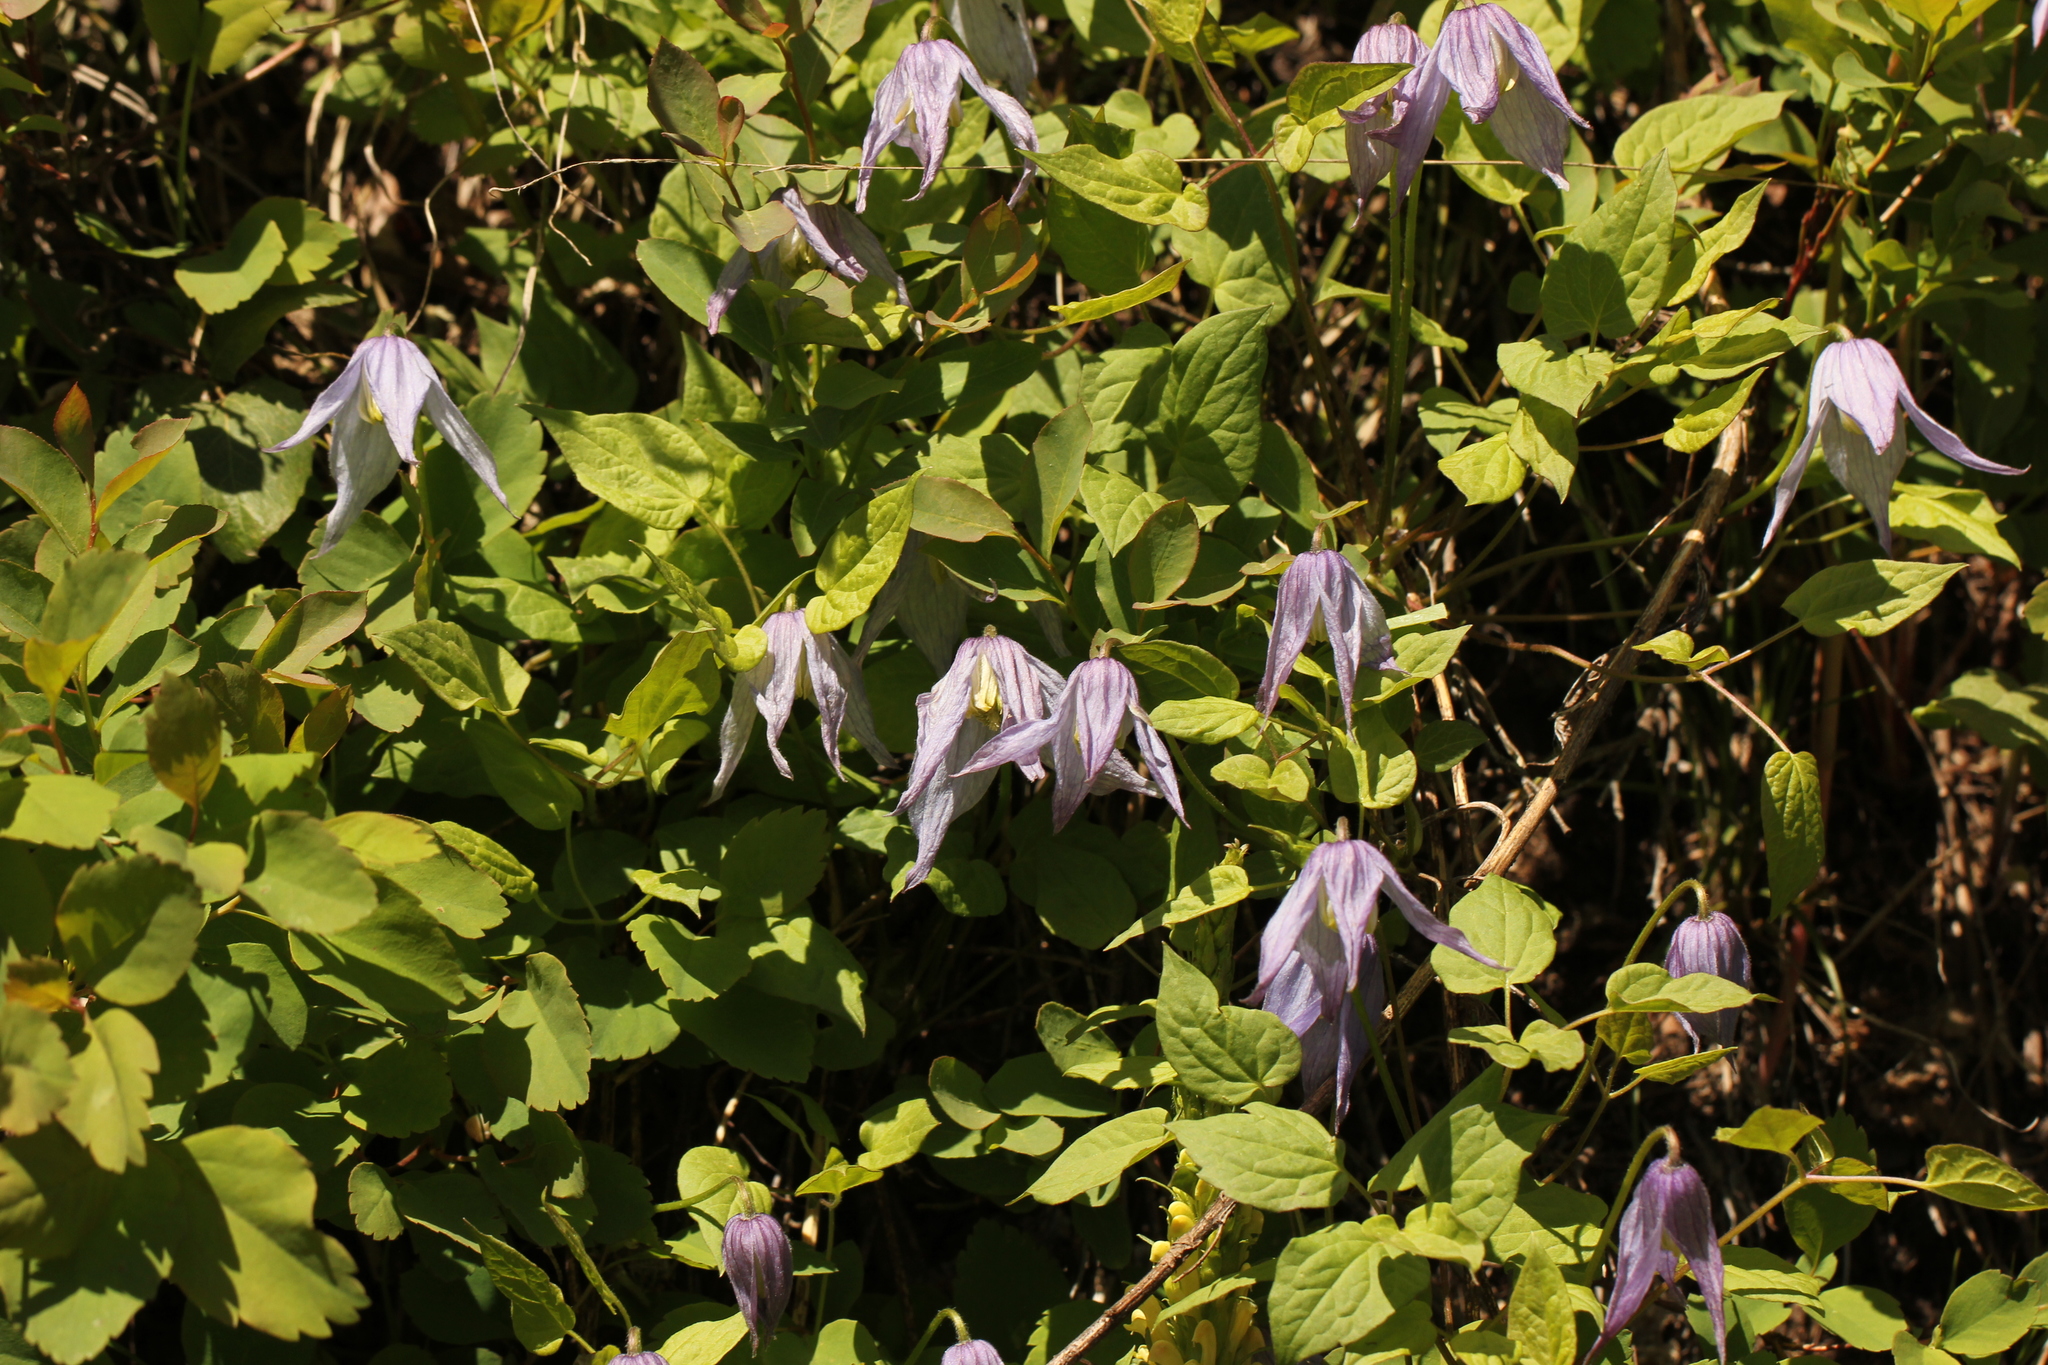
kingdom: Plantae
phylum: Tracheophyta
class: Magnoliopsida
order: Ranunculales
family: Ranunculaceae
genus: Clematis
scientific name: Clematis occidentalis
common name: Purple clematis
